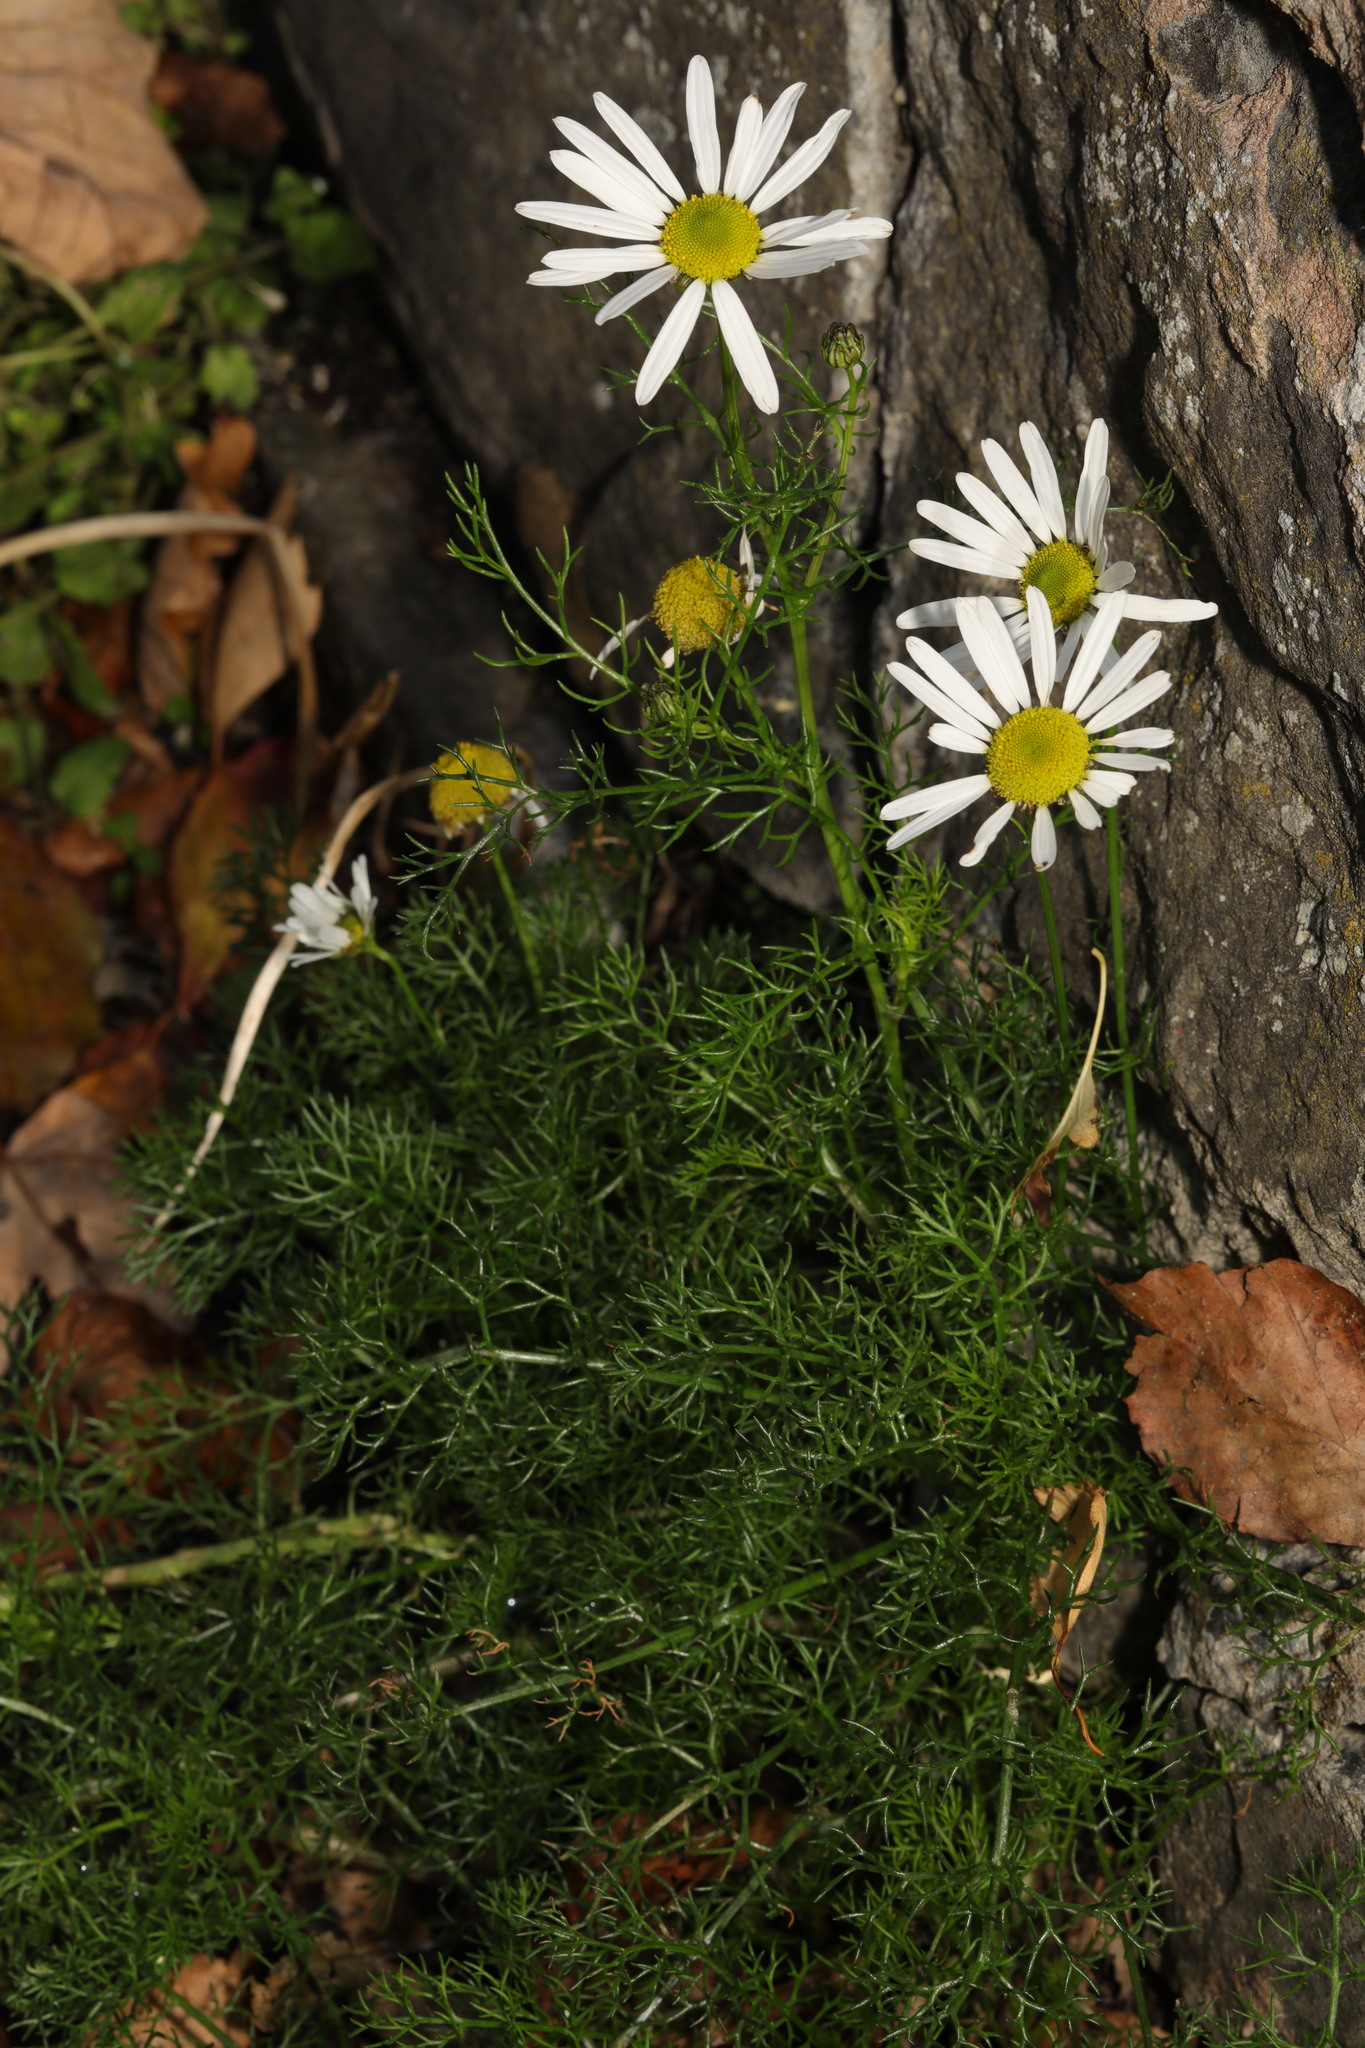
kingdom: Plantae
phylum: Tracheophyta
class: Magnoliopsida
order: Asterales
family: Asteraceae
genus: Tripleurospermum
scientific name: Tripleurospermum inodorum
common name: Scentless mayweed
